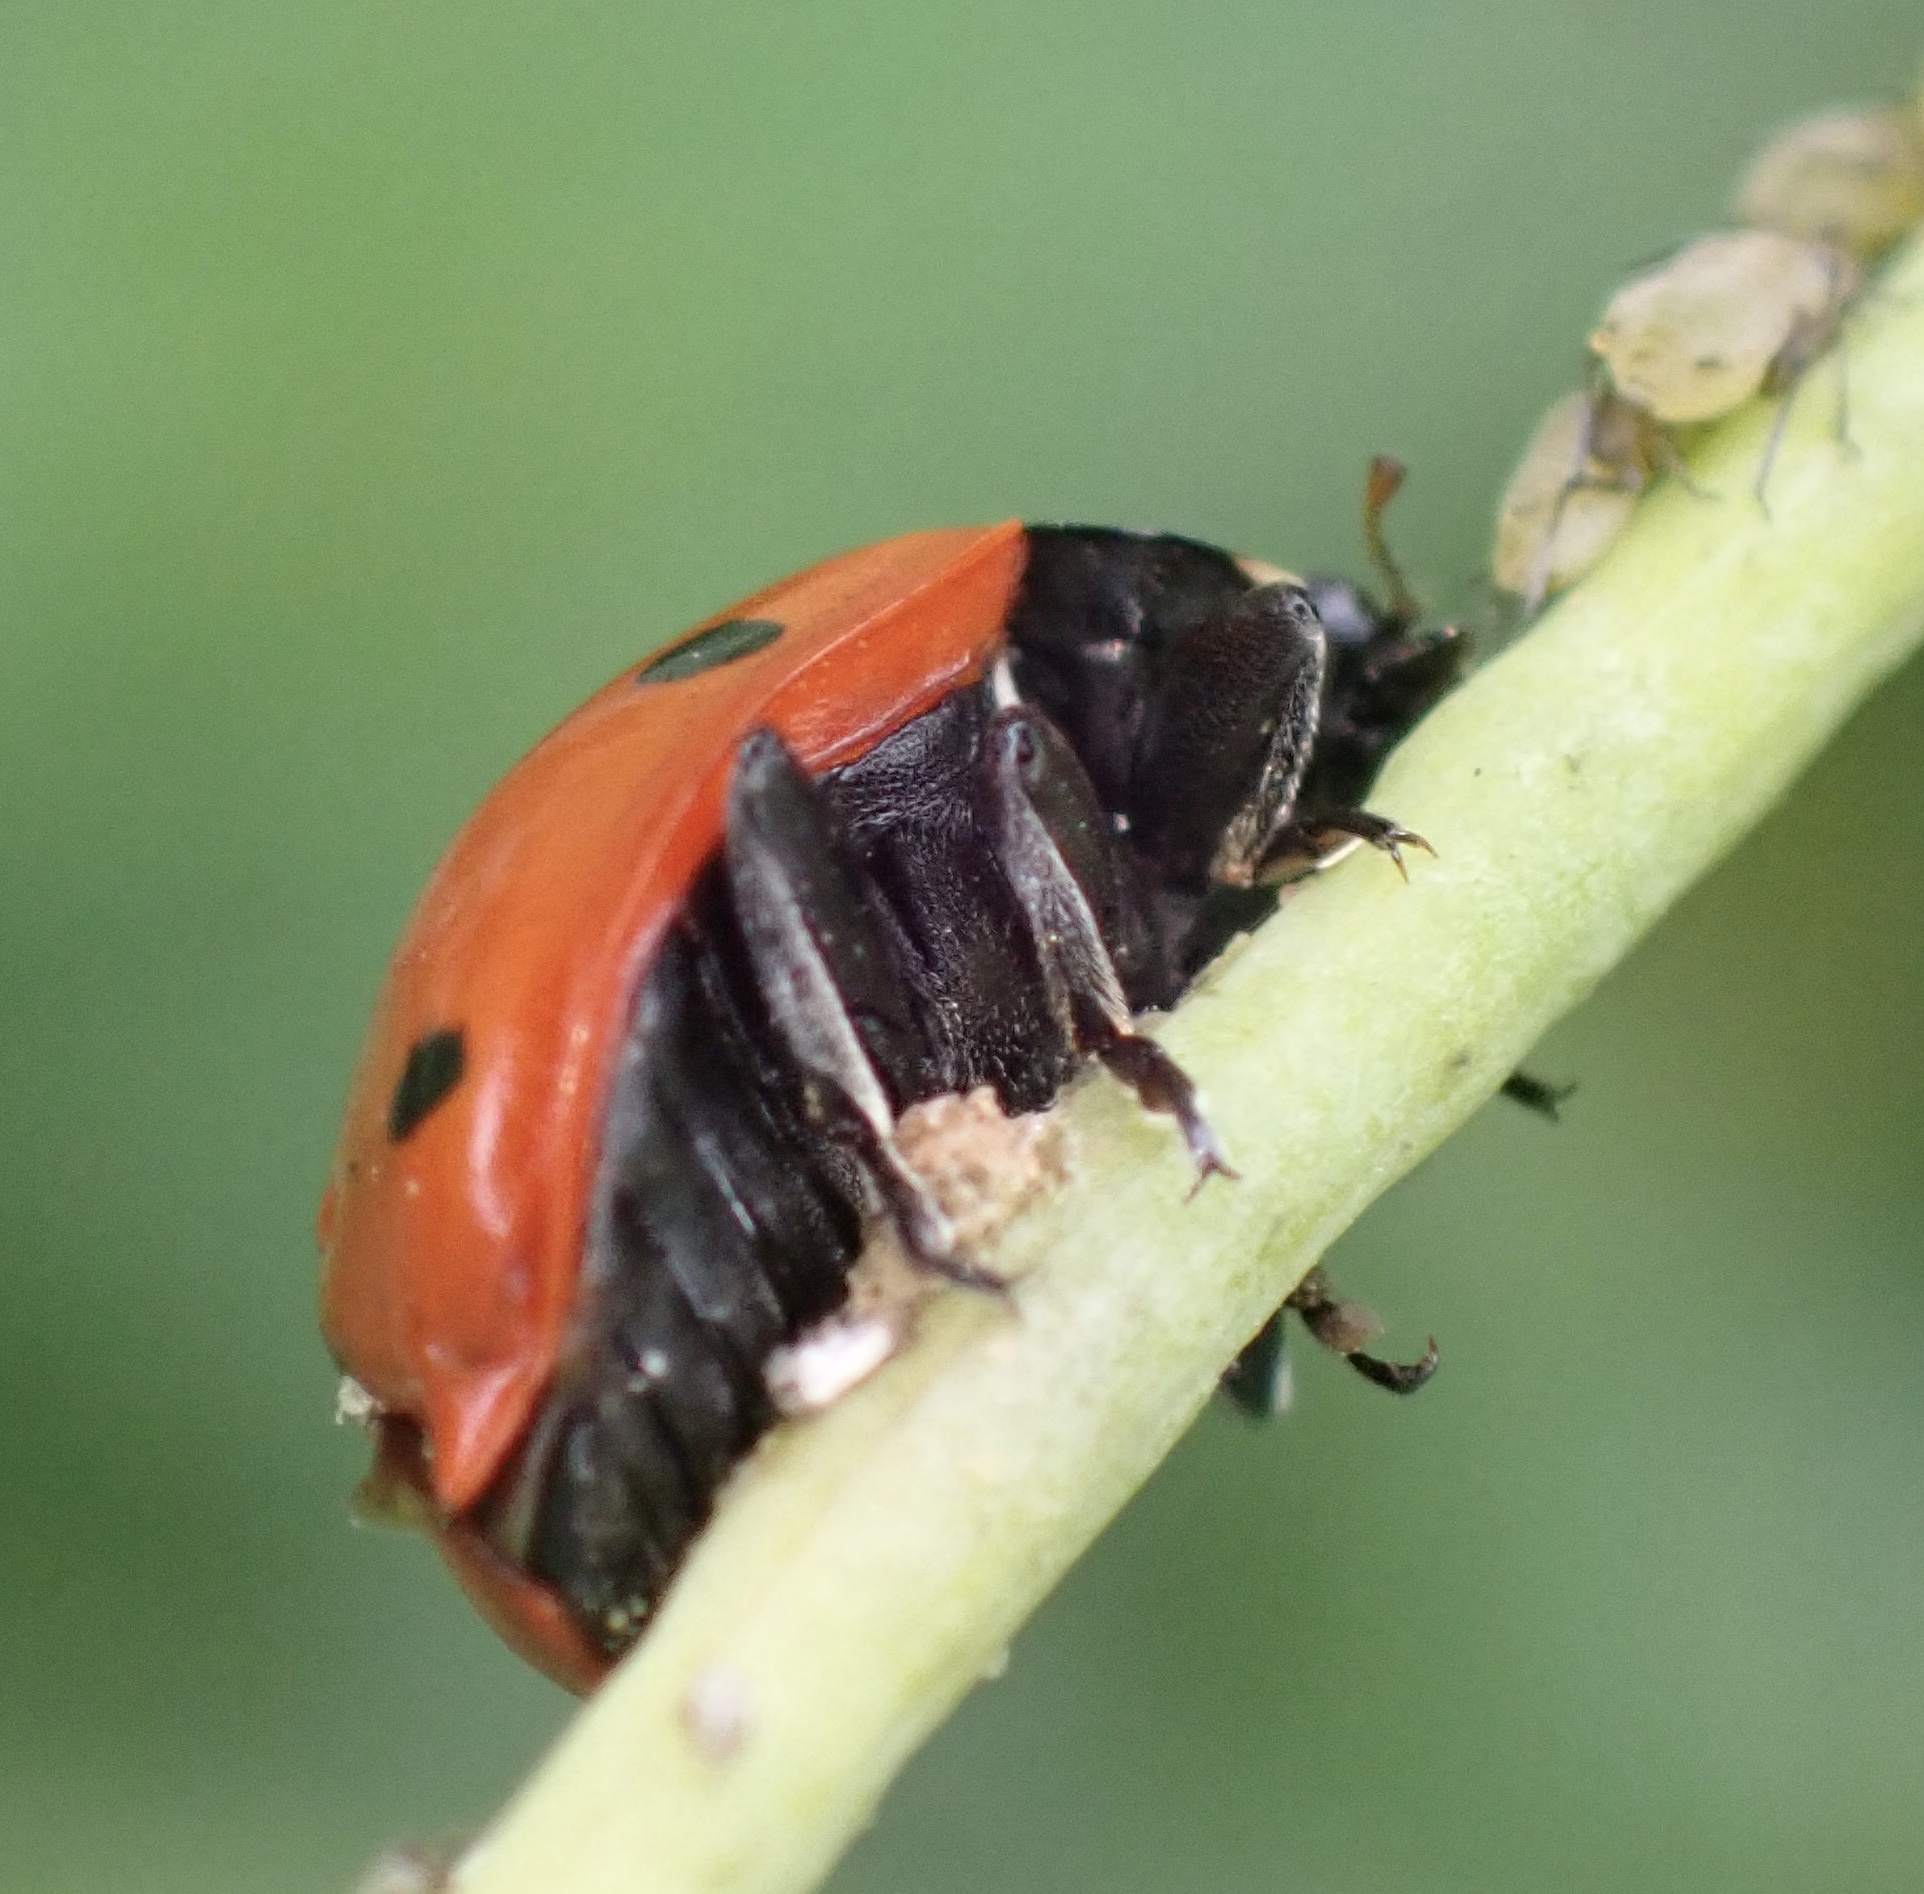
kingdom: Animalia
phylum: Arthropoda
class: Insecta
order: Coleoptera
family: Coccinellidae
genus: Coccinella
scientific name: Coccinella septempunctata
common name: Sevenspotted lady beetle
